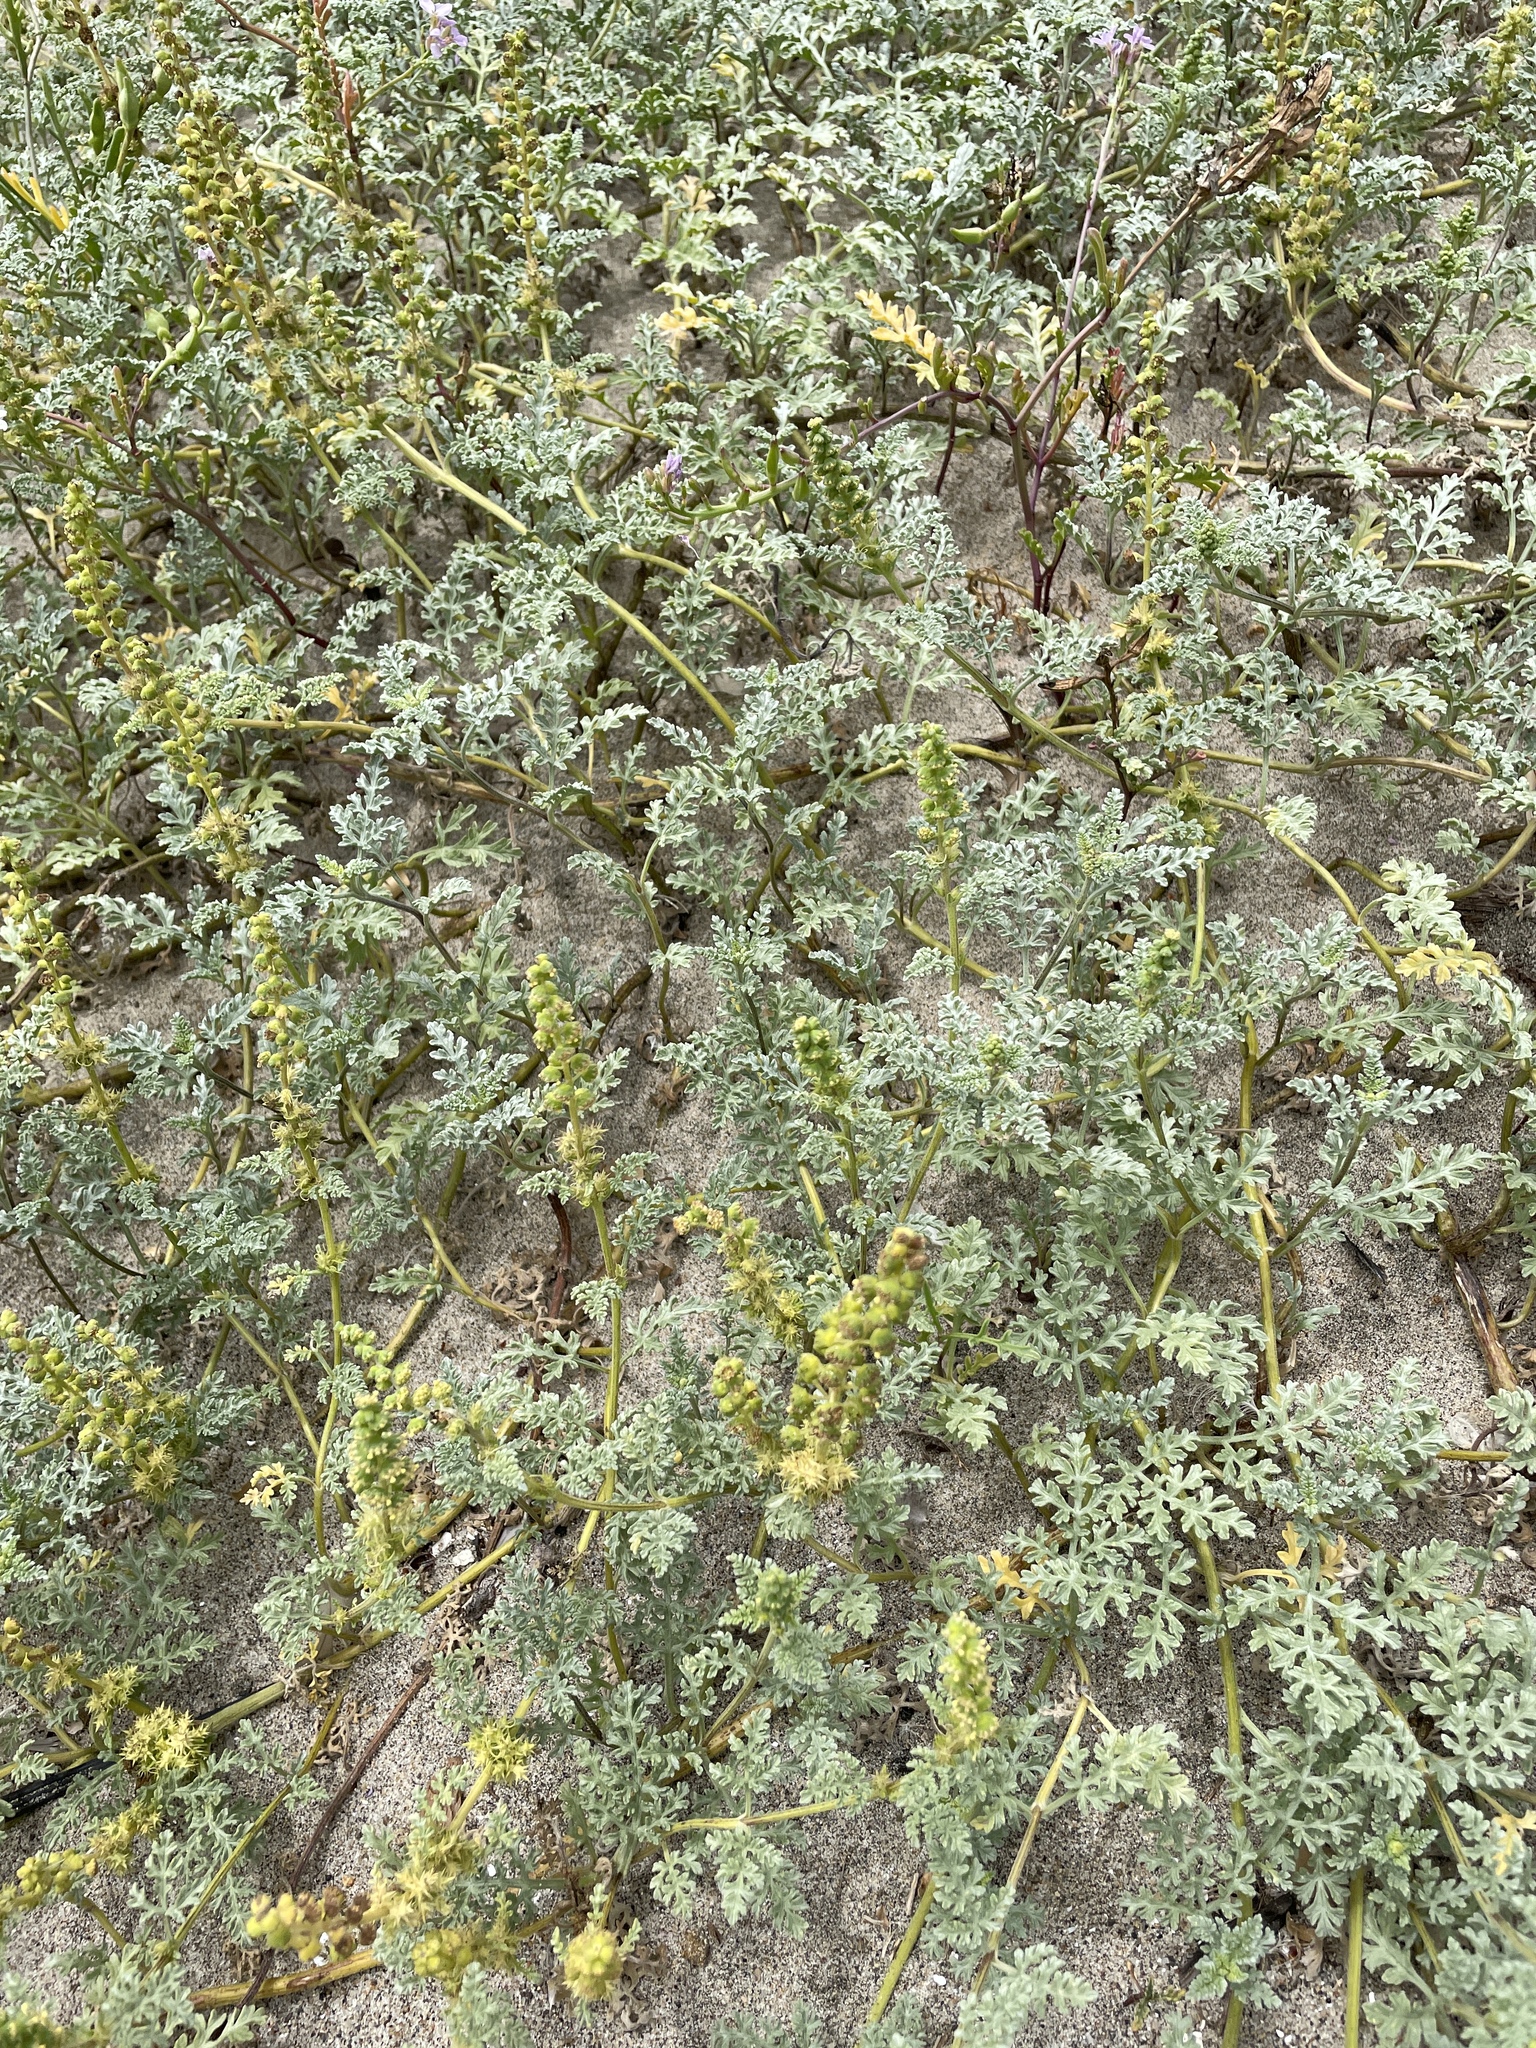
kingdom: Plantae
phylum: Tracheophyta
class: Magnoliopsida
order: Asterales
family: Asteraceae
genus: Ambrosia
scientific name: Ambrosia chamissonis
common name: Beachbur
